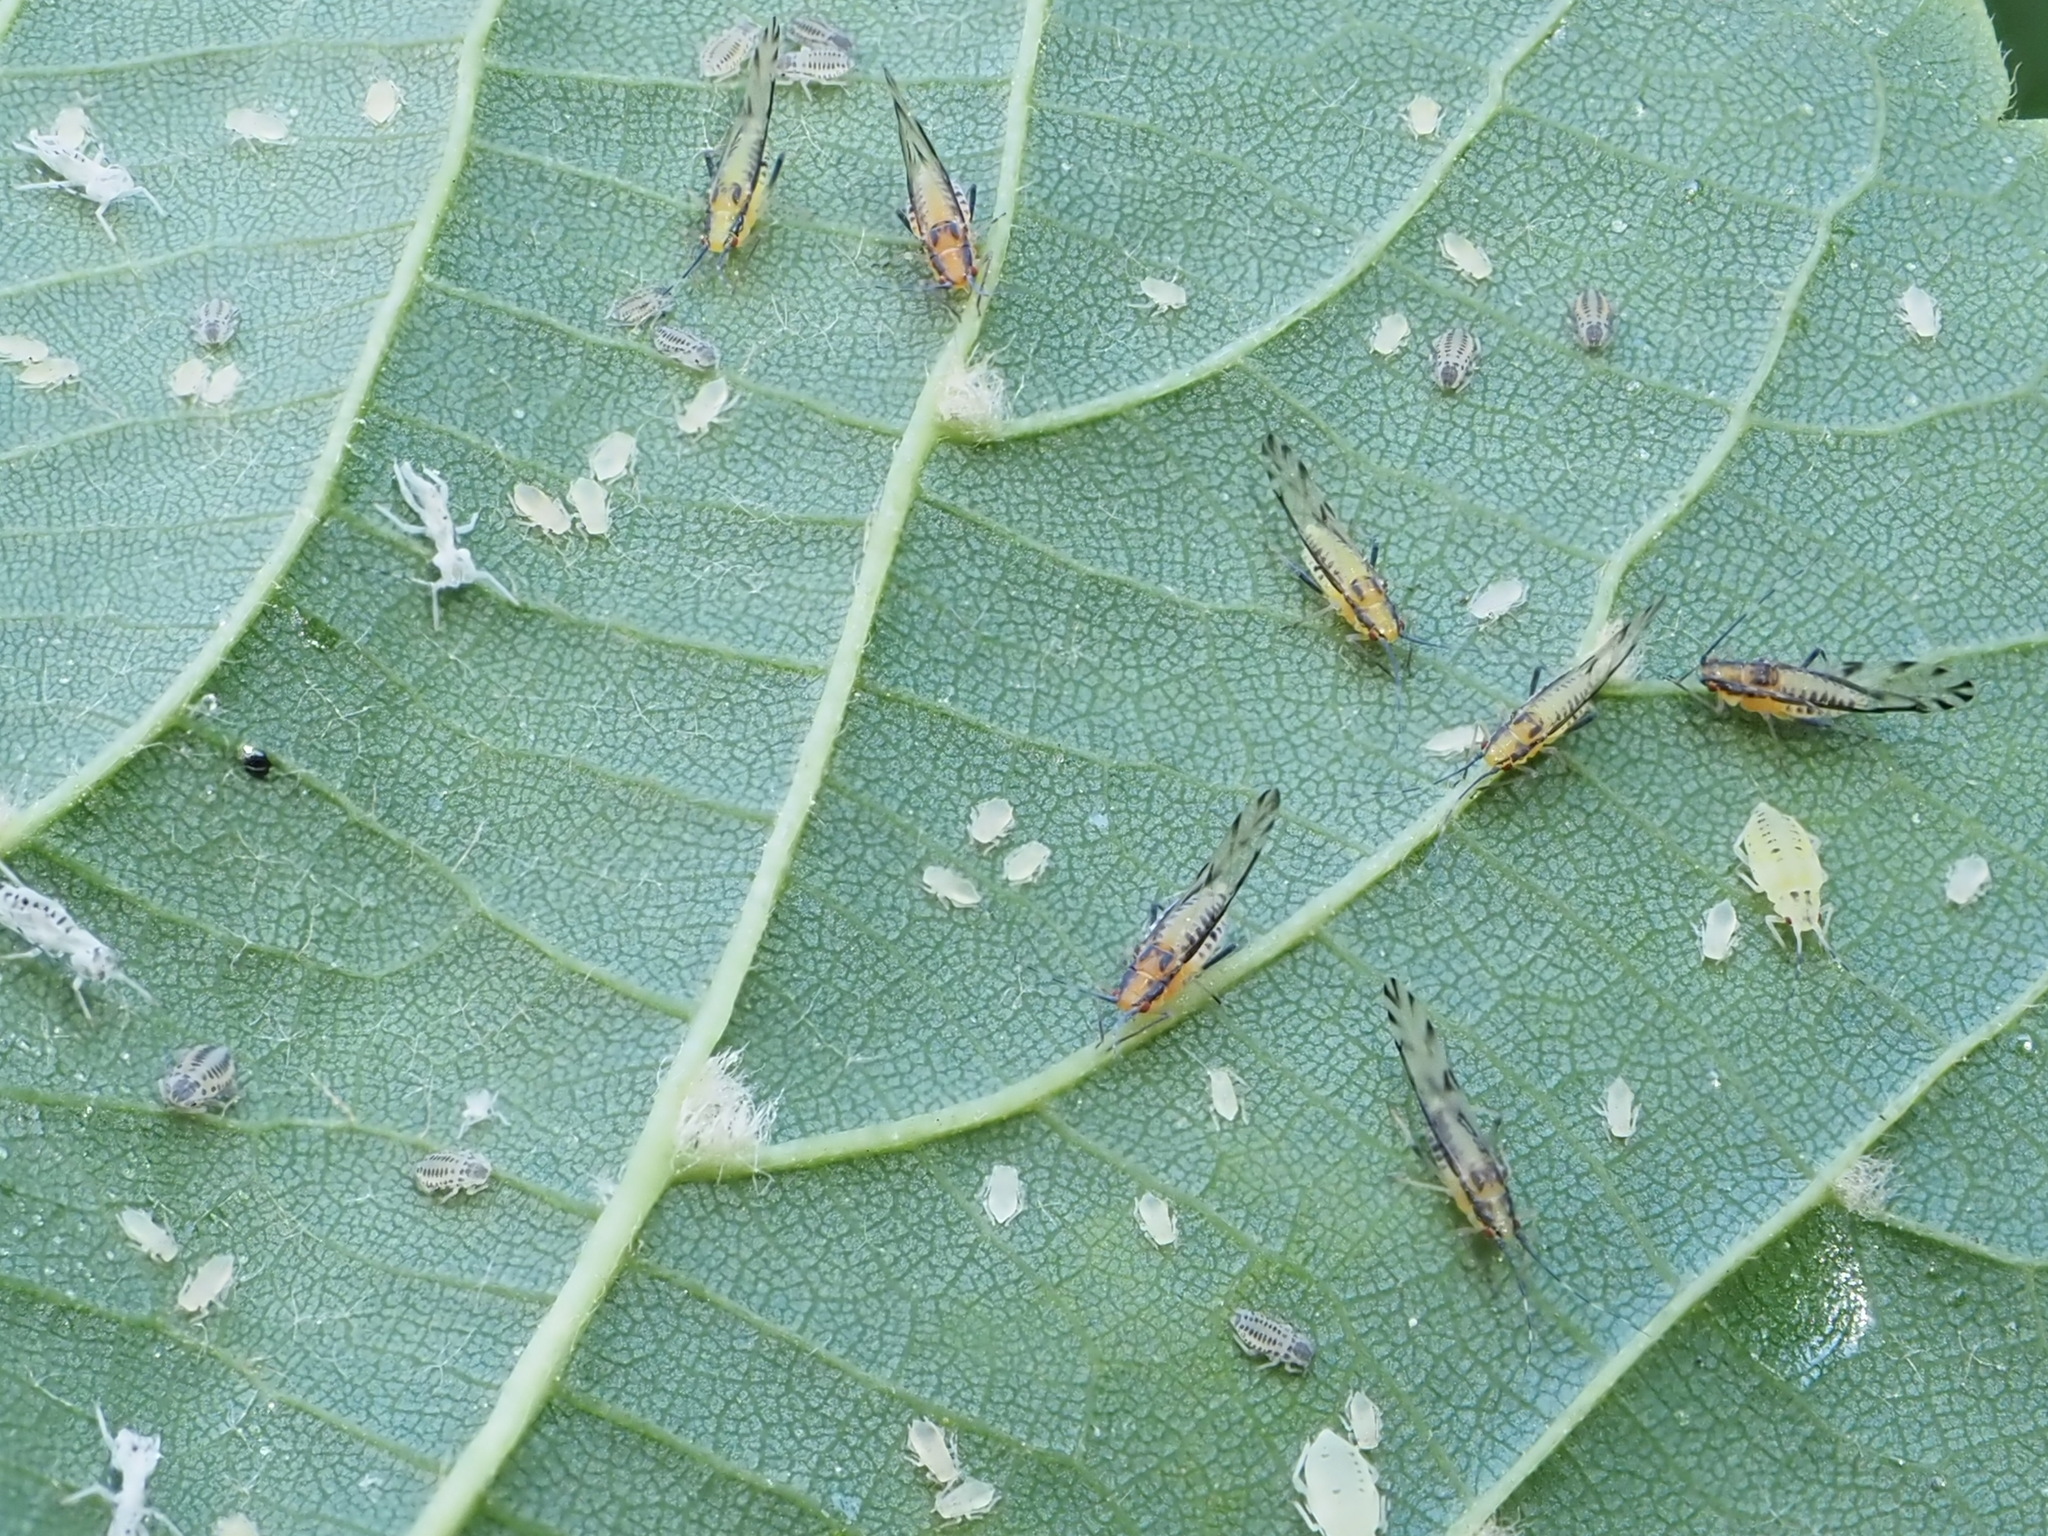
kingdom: Animalia
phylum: Arthropoda
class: Insecta
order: Hemiptera
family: Aphididae
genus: Eucallipterus
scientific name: Eucallipterus tiliae
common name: Aphid
